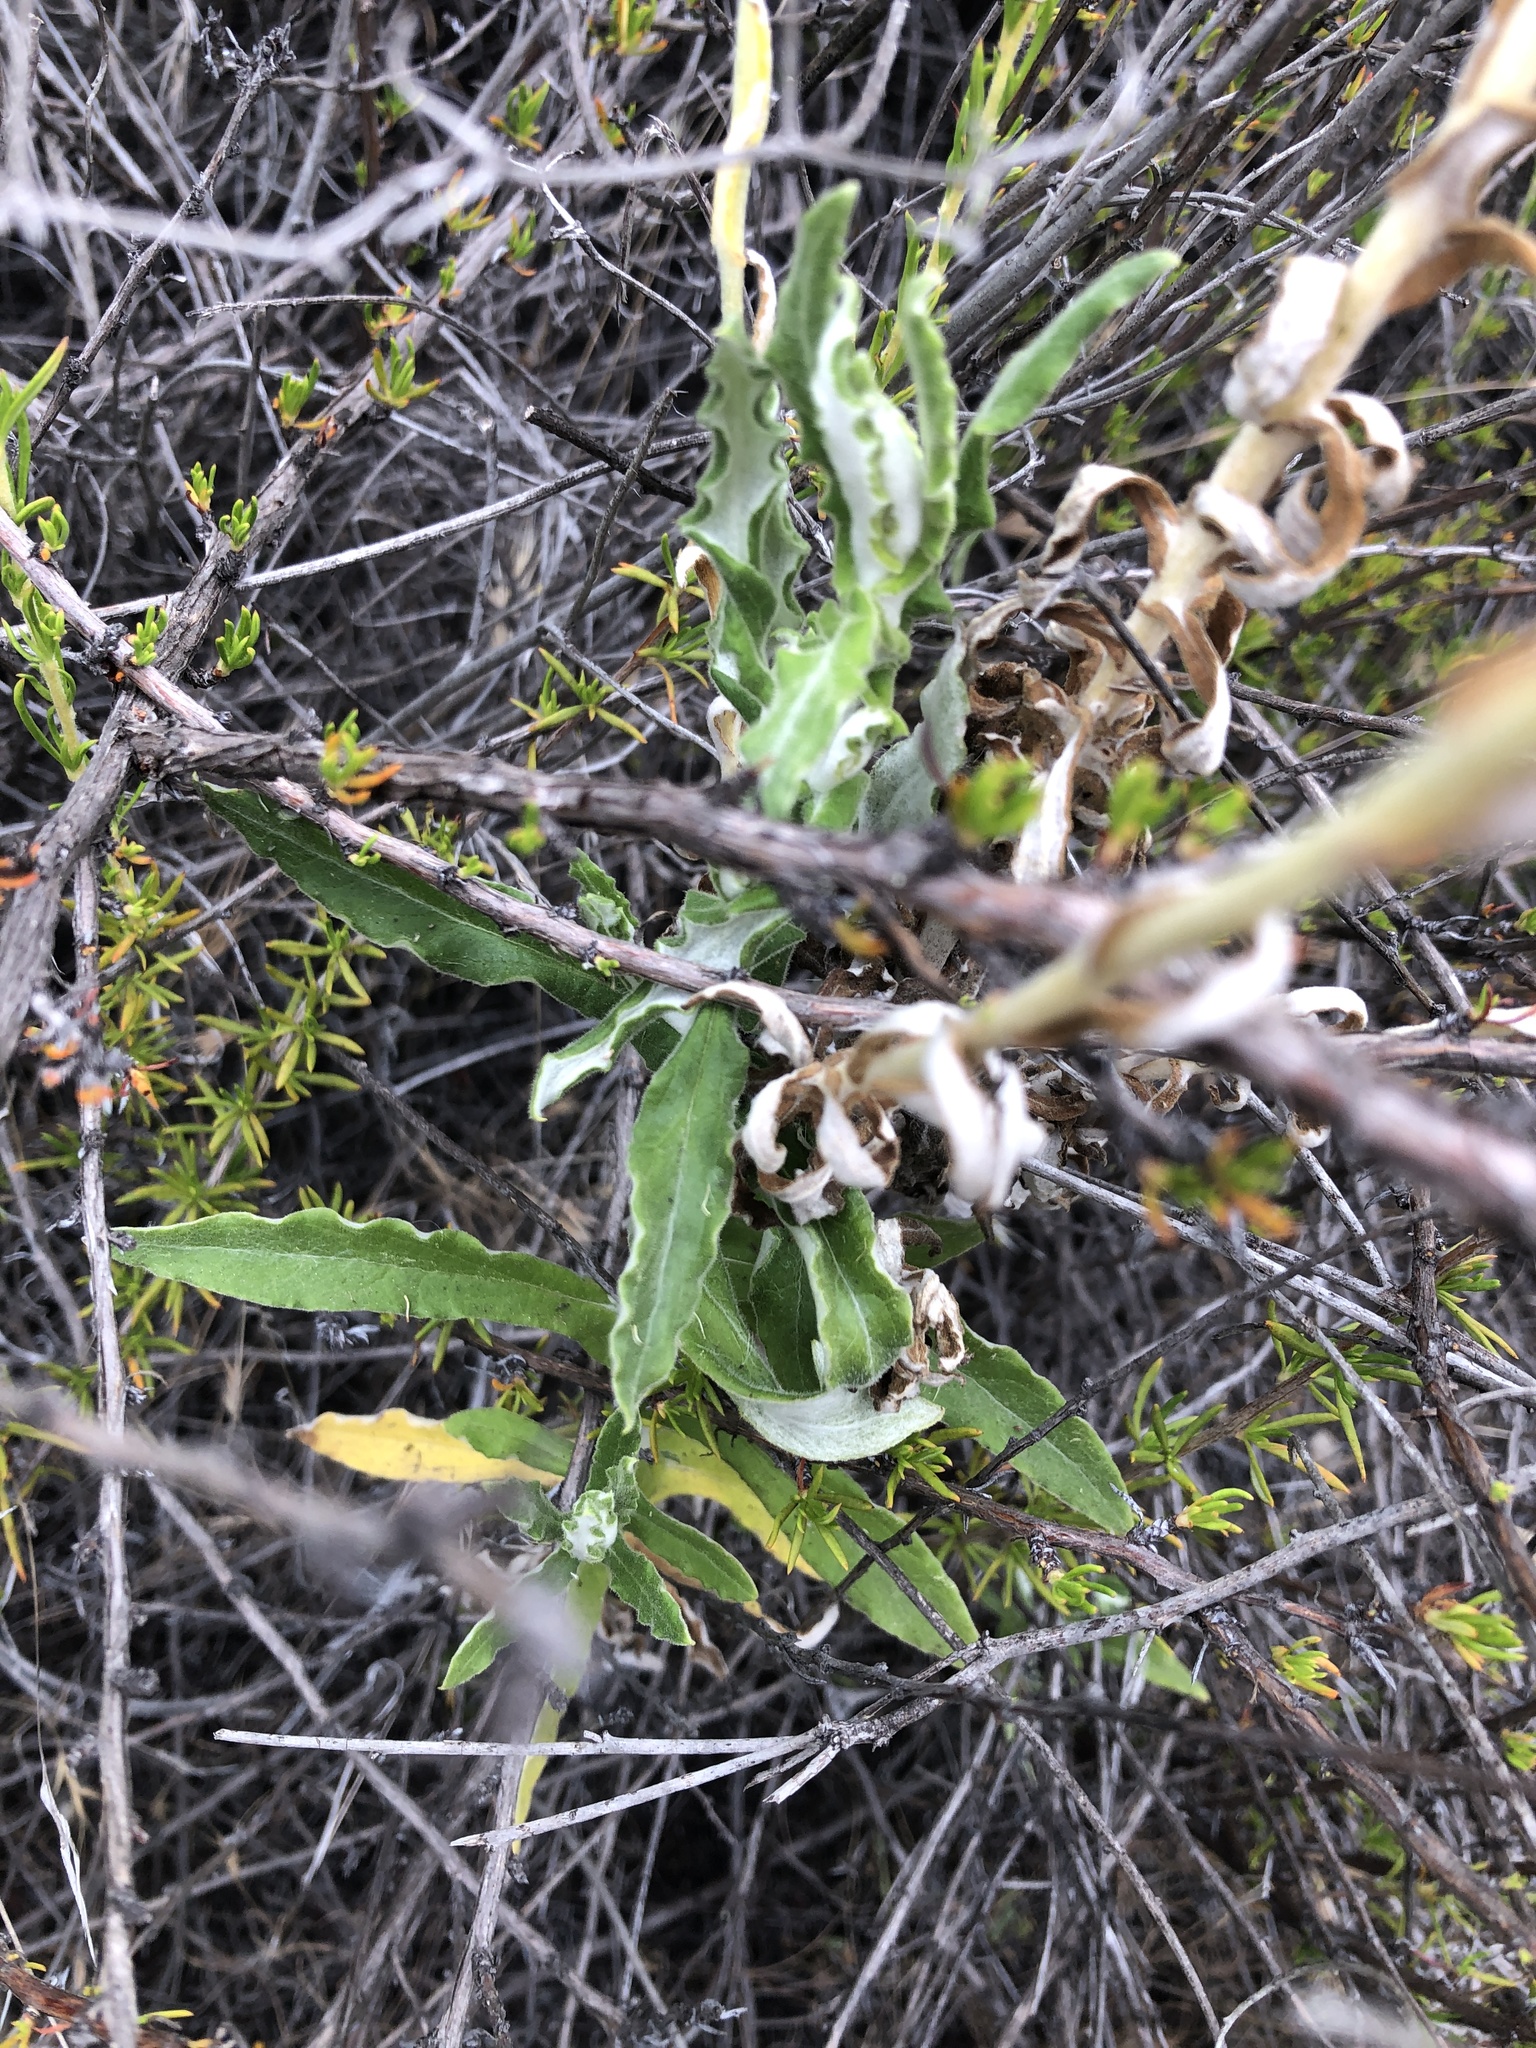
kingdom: Plantae
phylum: Tracheophyta
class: Magnoliopsida
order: Asterales
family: Asteraceae
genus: Pseudognaphalium
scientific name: Pseudognaphalium biolettii
